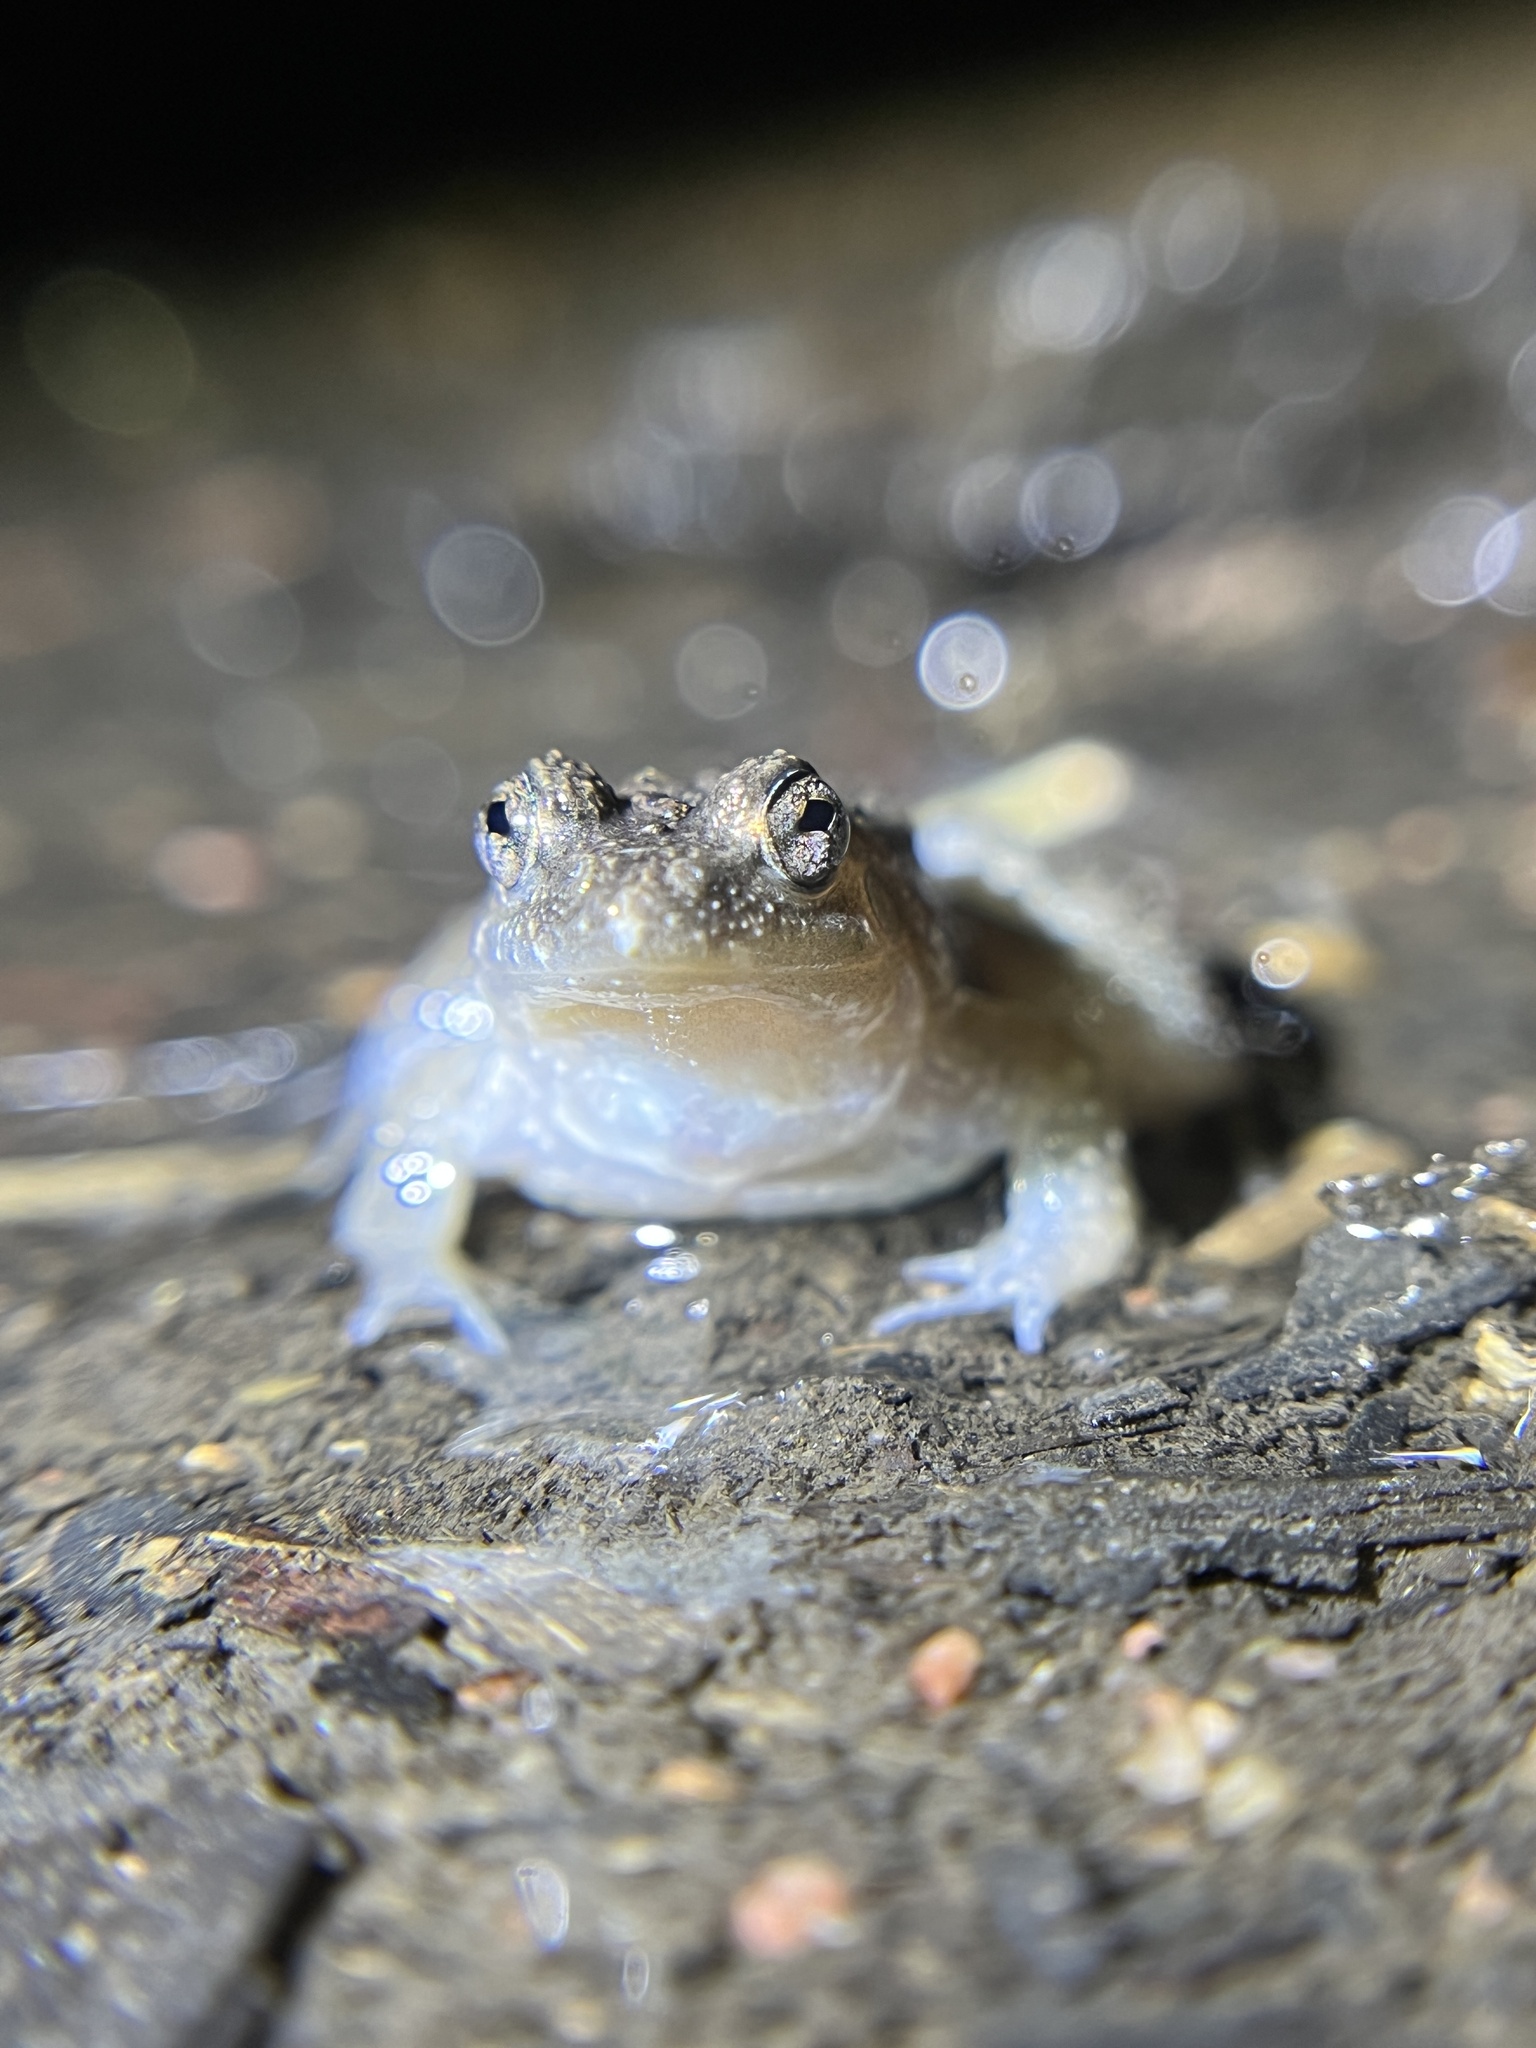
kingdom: Animalia
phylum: Chordata
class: Amphibia
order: Anura
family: Dicroglossidae
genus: Occidozyga
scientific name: Occidozyga martensii
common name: Marten’s oriental frog/round-tongued floating frog
